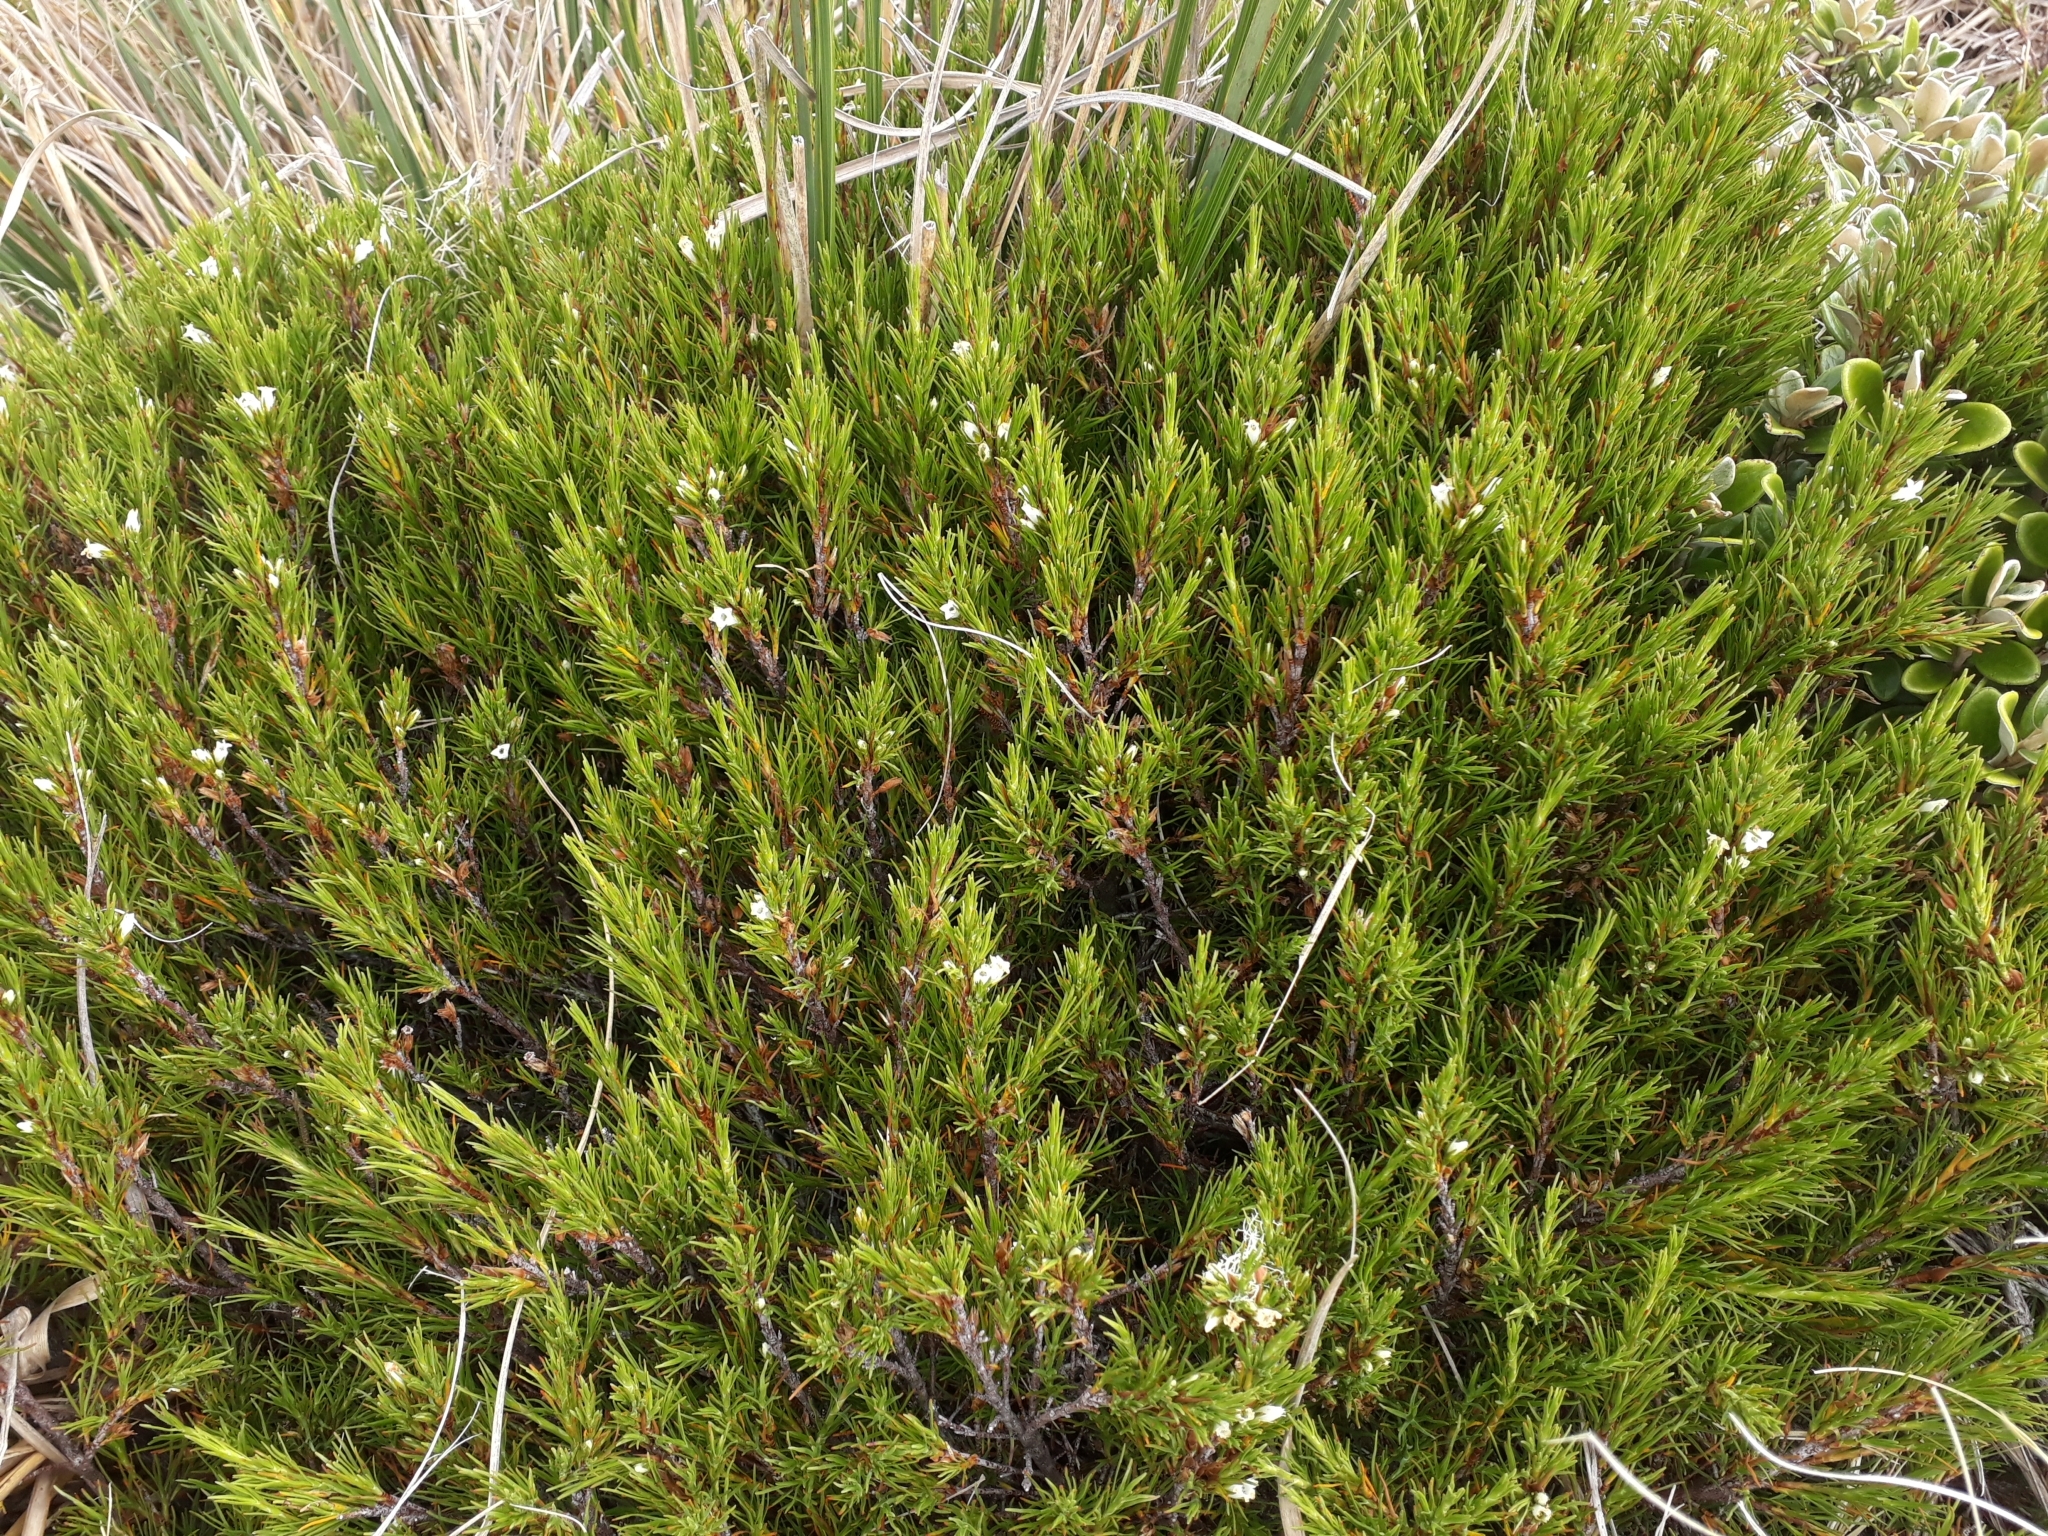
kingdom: Plantae
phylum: Tracheophyta
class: Magnoliopsida
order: Ericales
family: Ericaceae
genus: Dracophyllum
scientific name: Dracophyllum rosmarinifolium
